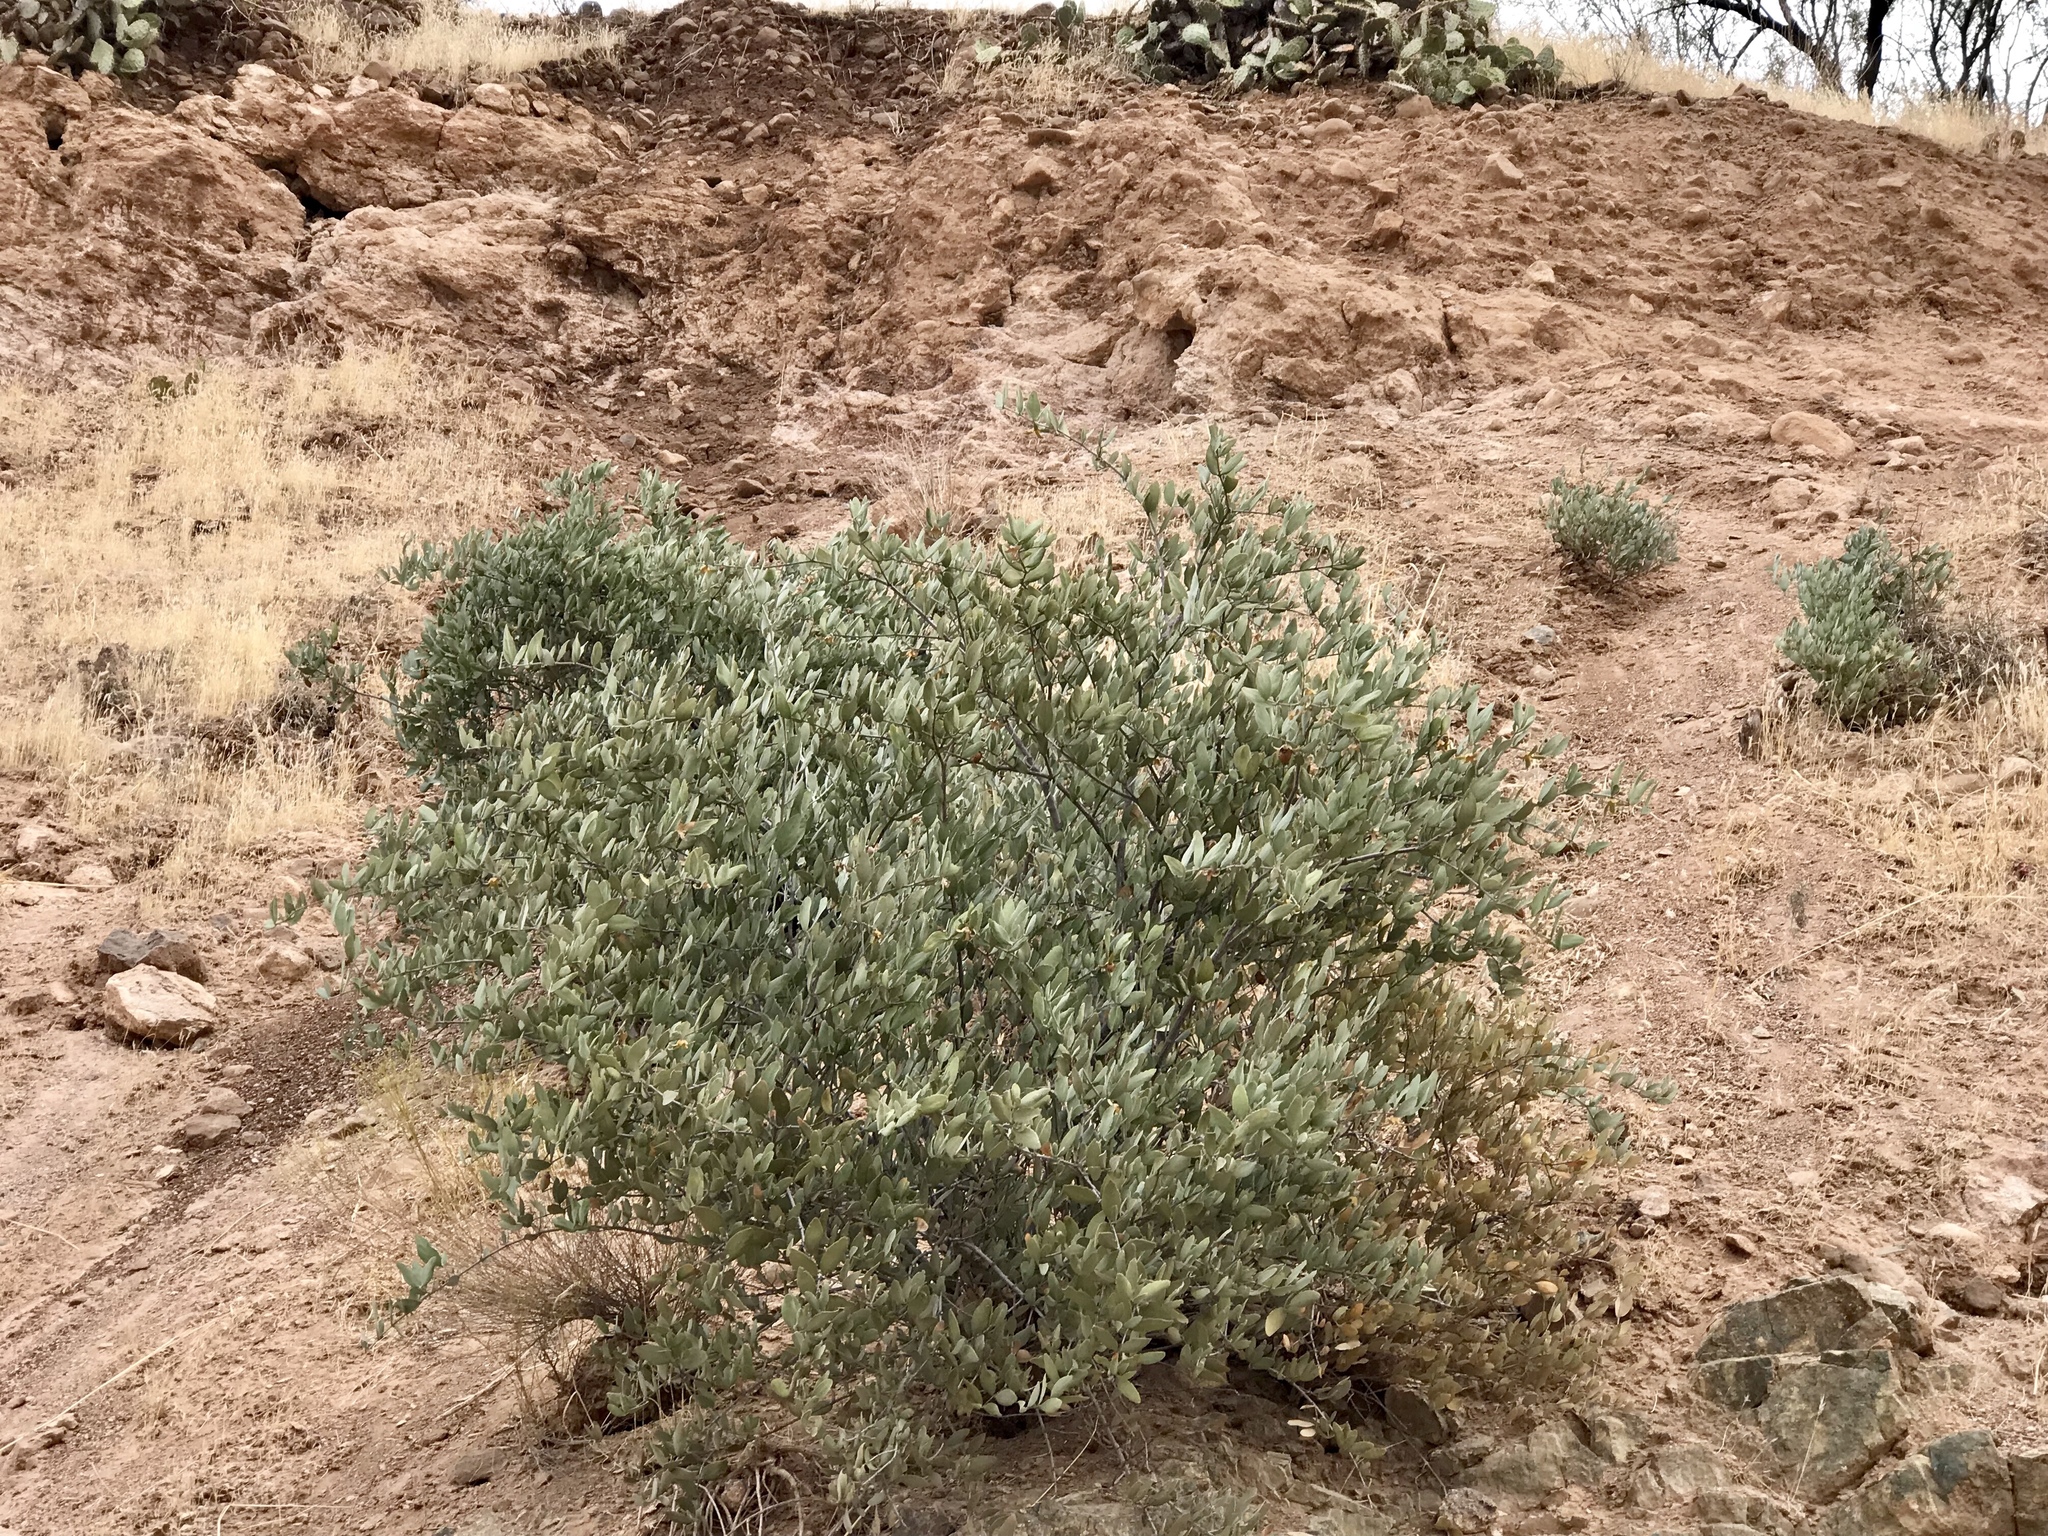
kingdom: Plantae
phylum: Tracheophyta
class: Magnoliopsida
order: Caryophyllales
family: Simmondsiaceae
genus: Simmondsia
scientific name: Simmondsia chinensis
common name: Jojoba
